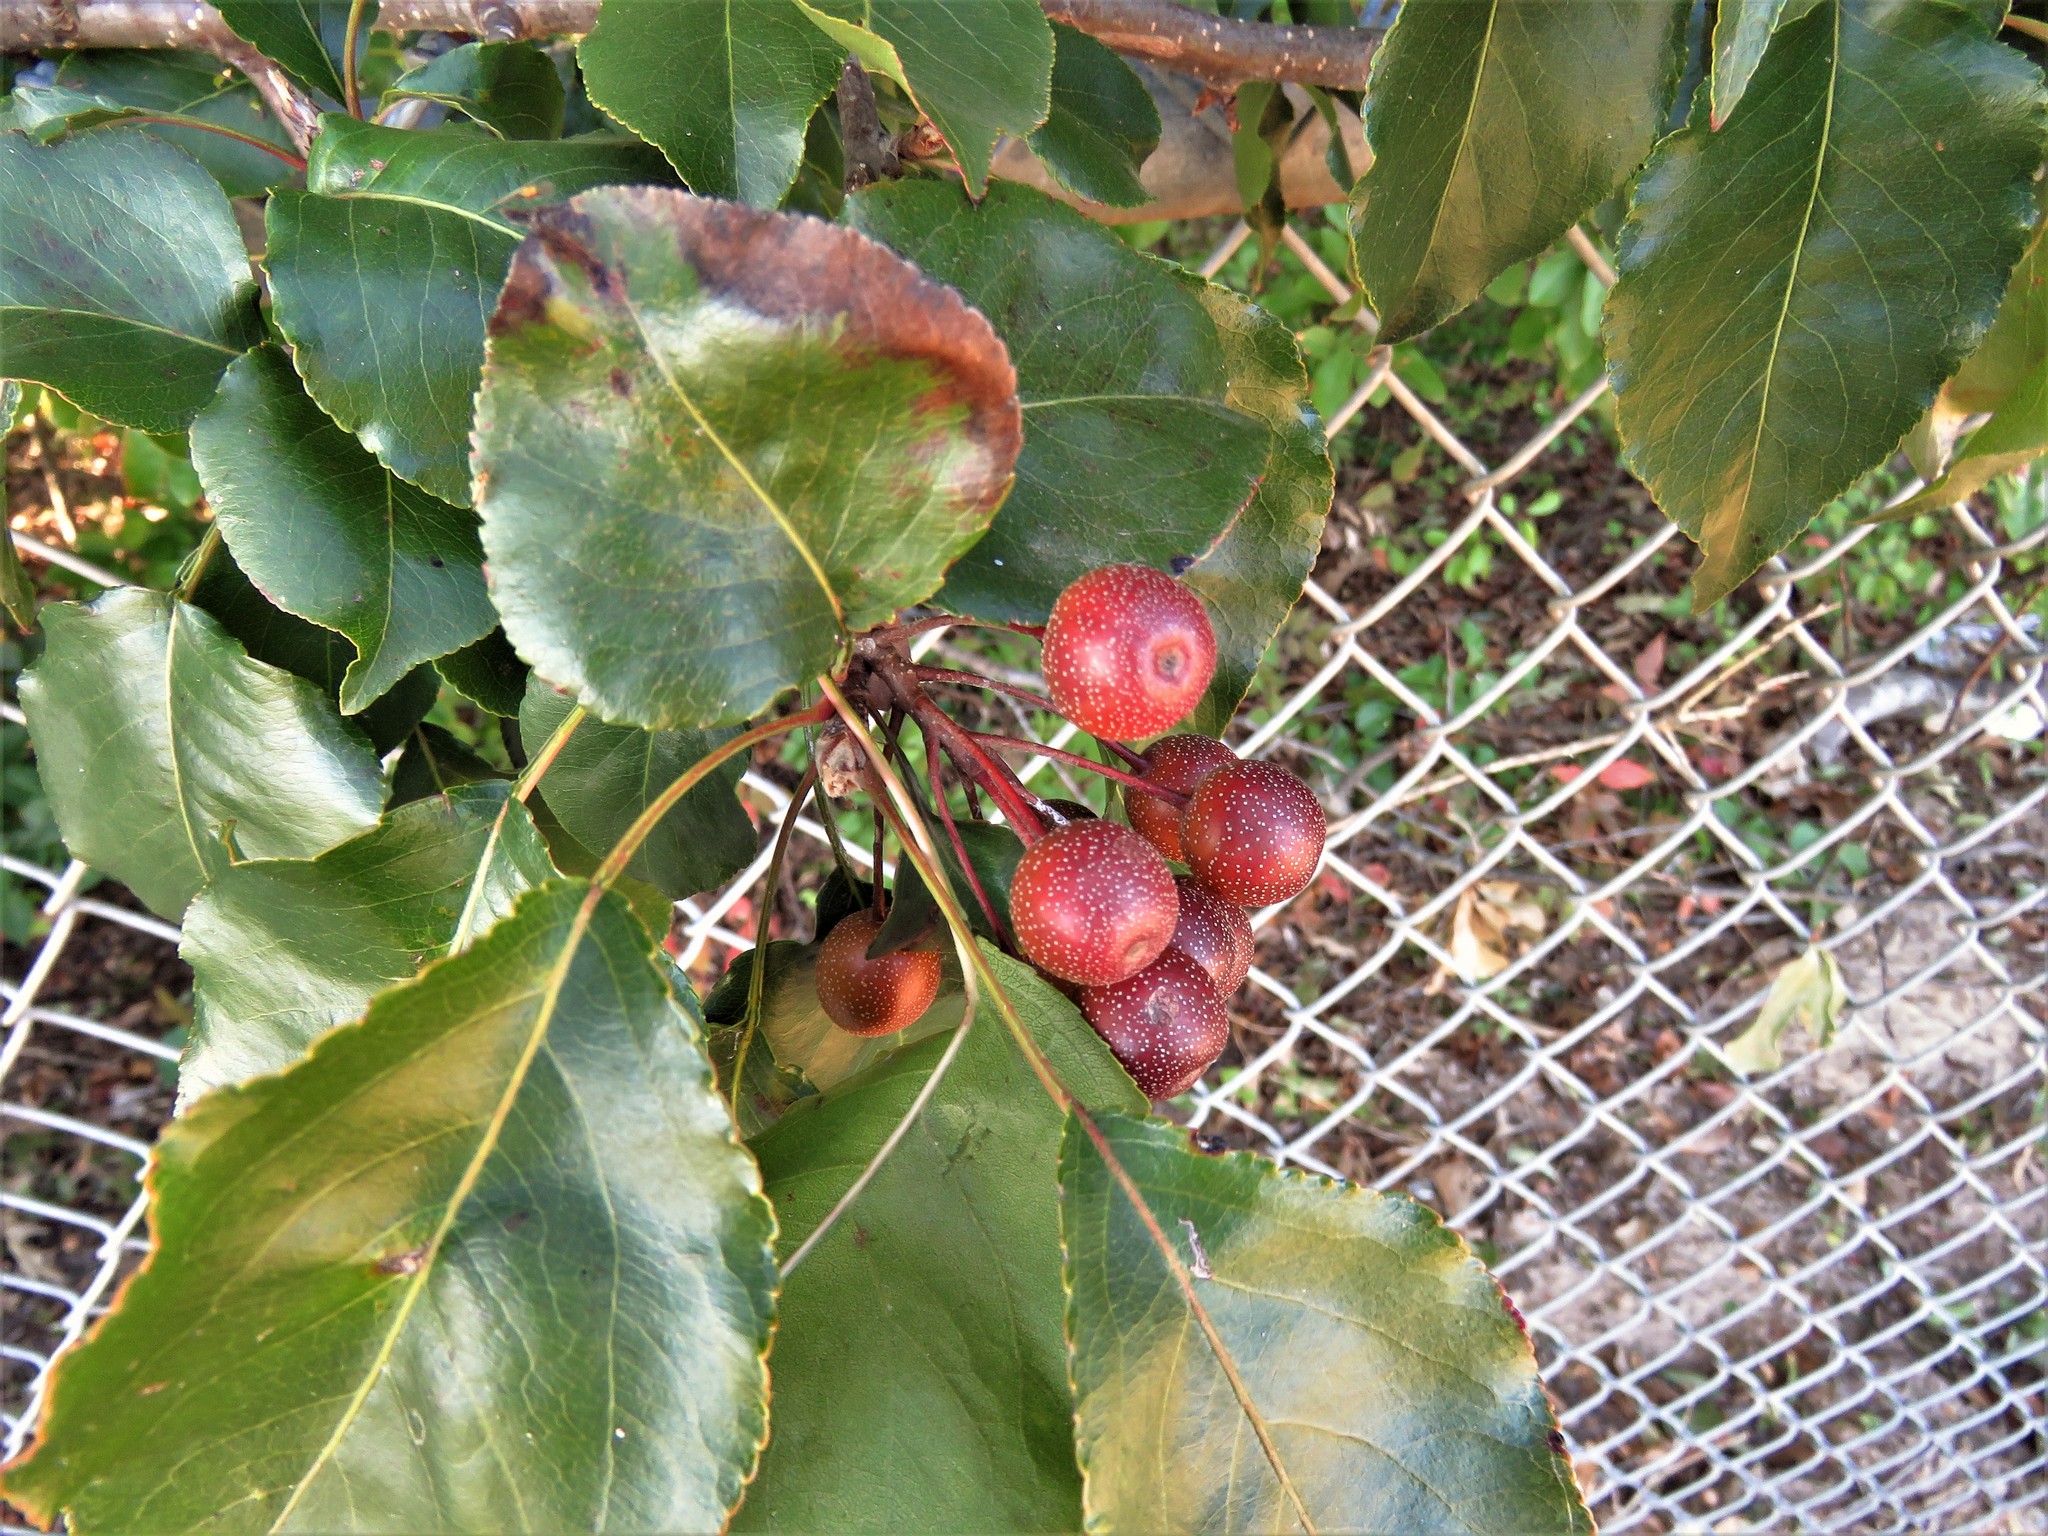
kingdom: Plantae
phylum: Tracheophyta
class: Magnoliopsida
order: Rosales
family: Rosaceae
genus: Pyrus
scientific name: Pyrus calleryana
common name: Callery pear
